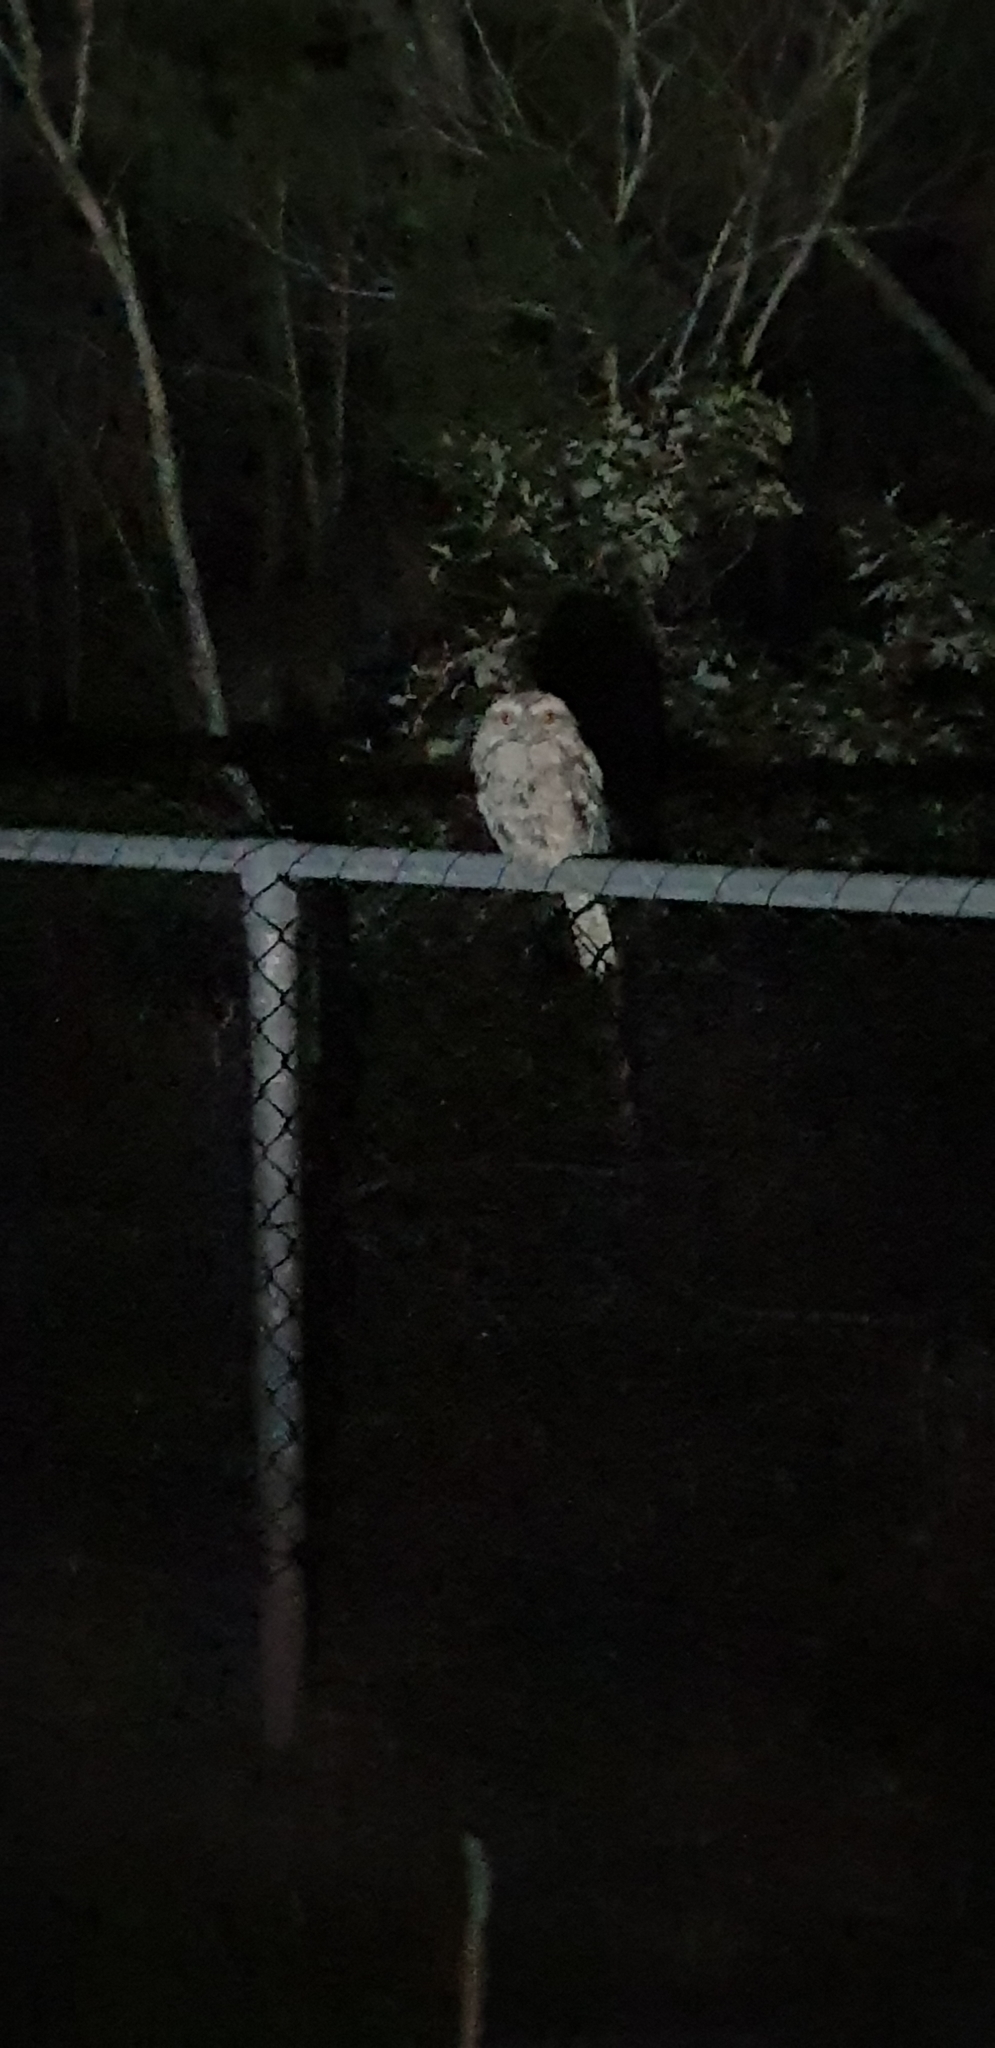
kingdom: Animalia
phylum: Chordata
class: Aves
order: Caprimulgiformes
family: Podargidae
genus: Podargus
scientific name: Podargus strigoides
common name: Tawny frogmouth
